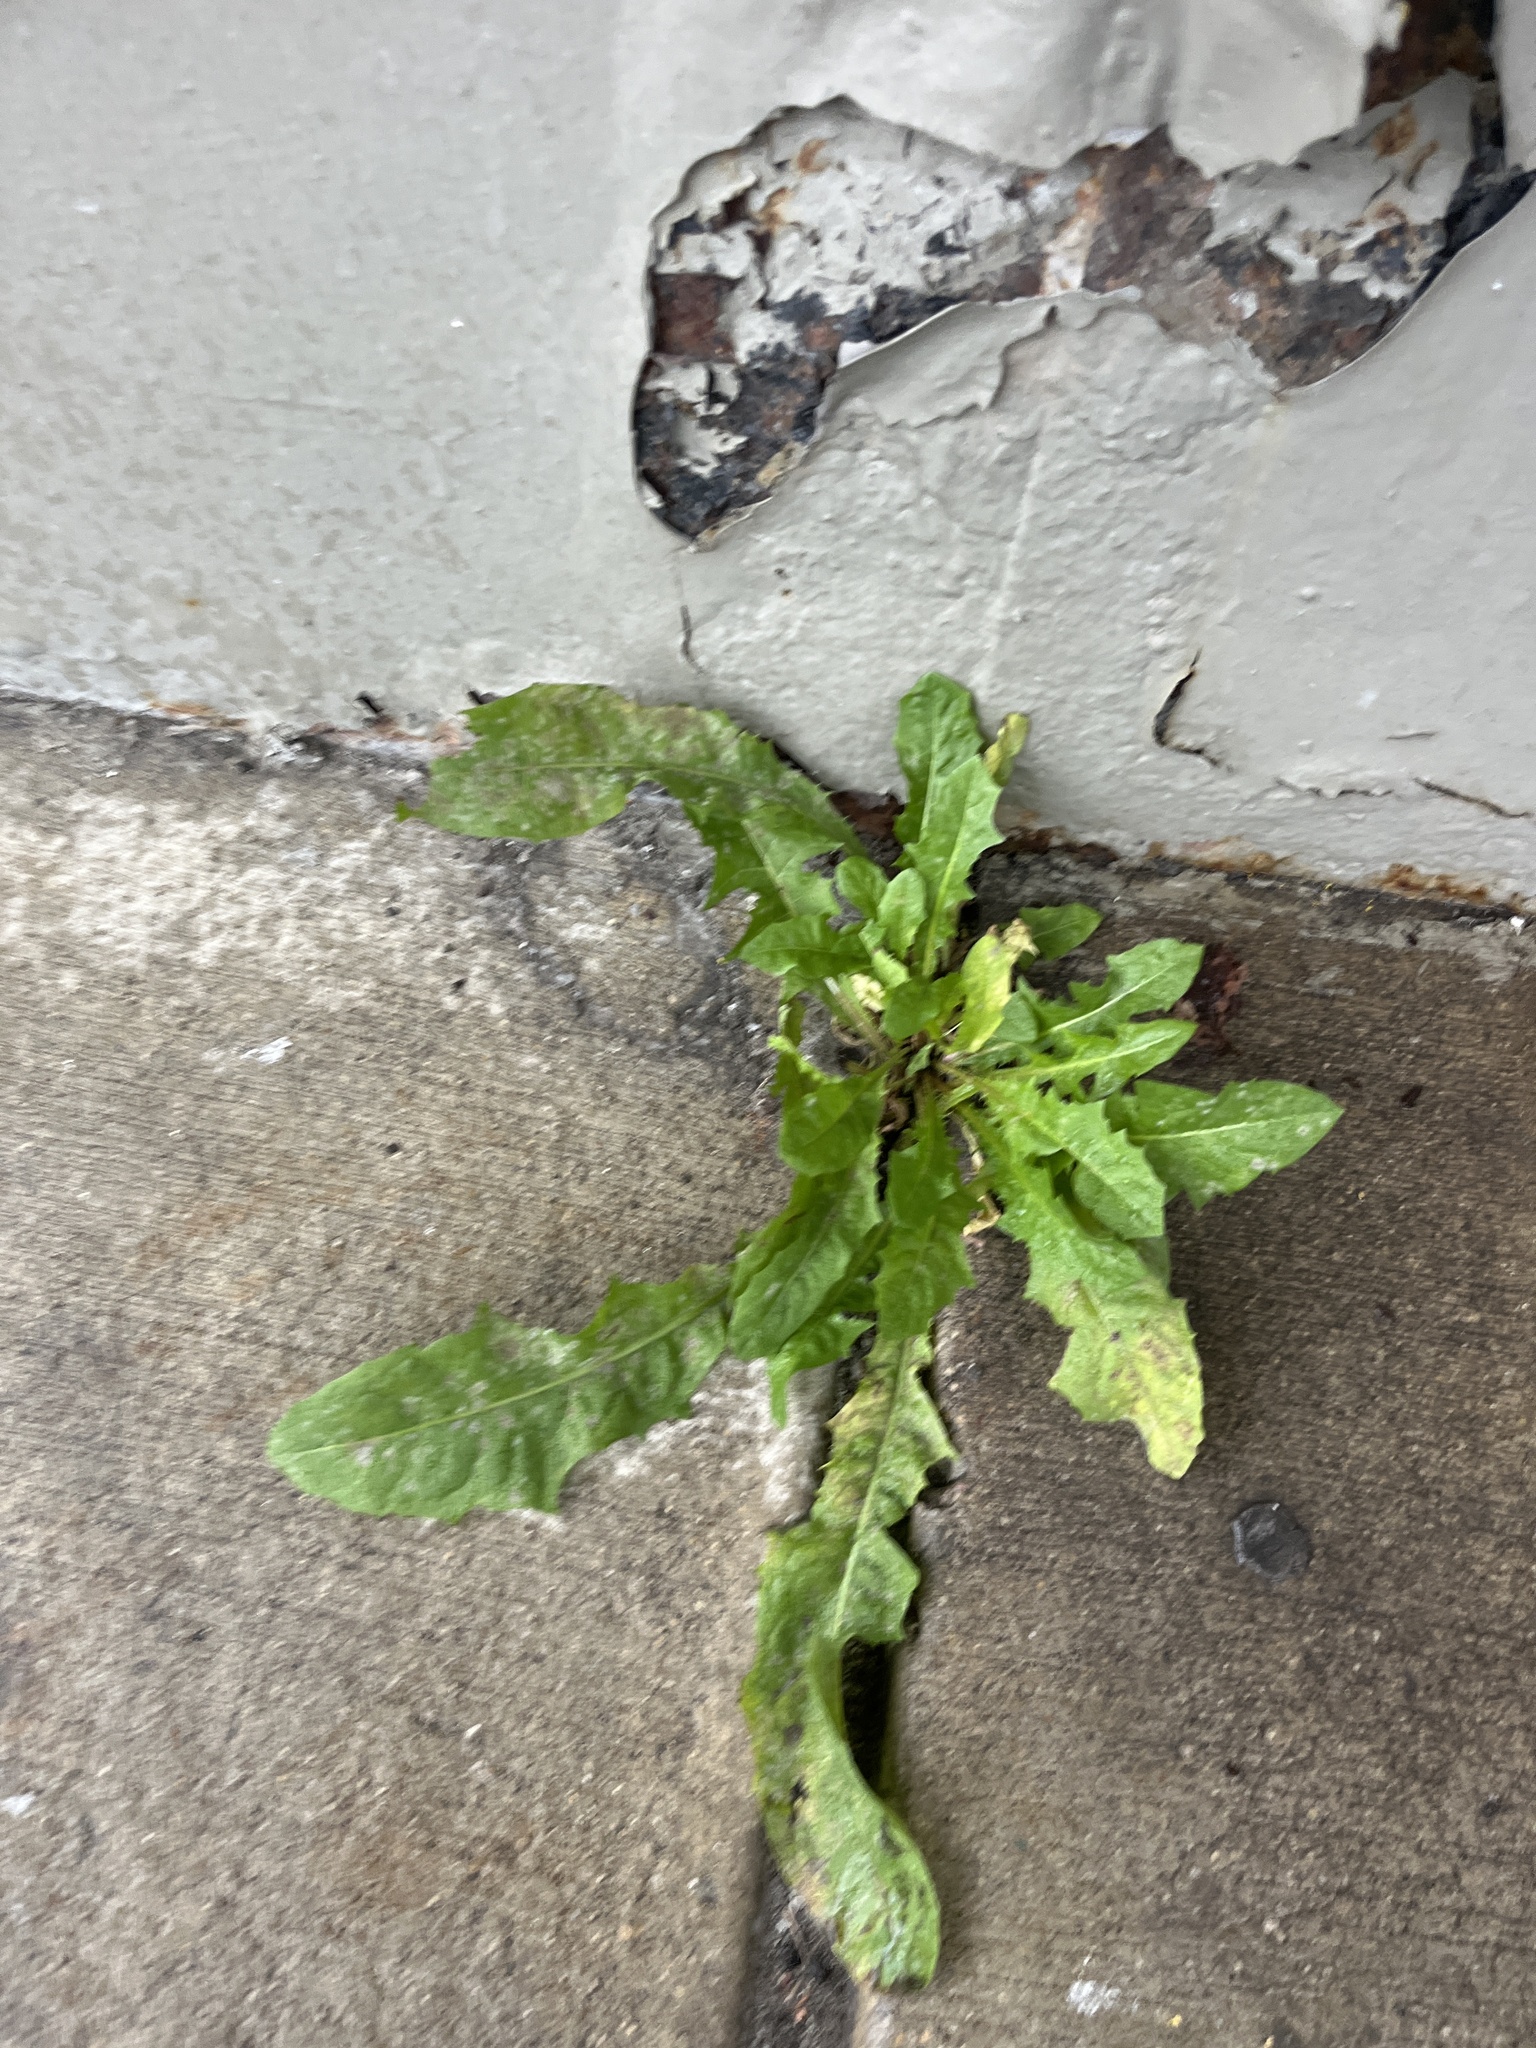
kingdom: Plantae
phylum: Tracheophyta
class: Magnoliopsida
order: Asterales
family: Asteraceae
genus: Taraxacum
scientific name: Taraxacum officinale
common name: Common dandelion
